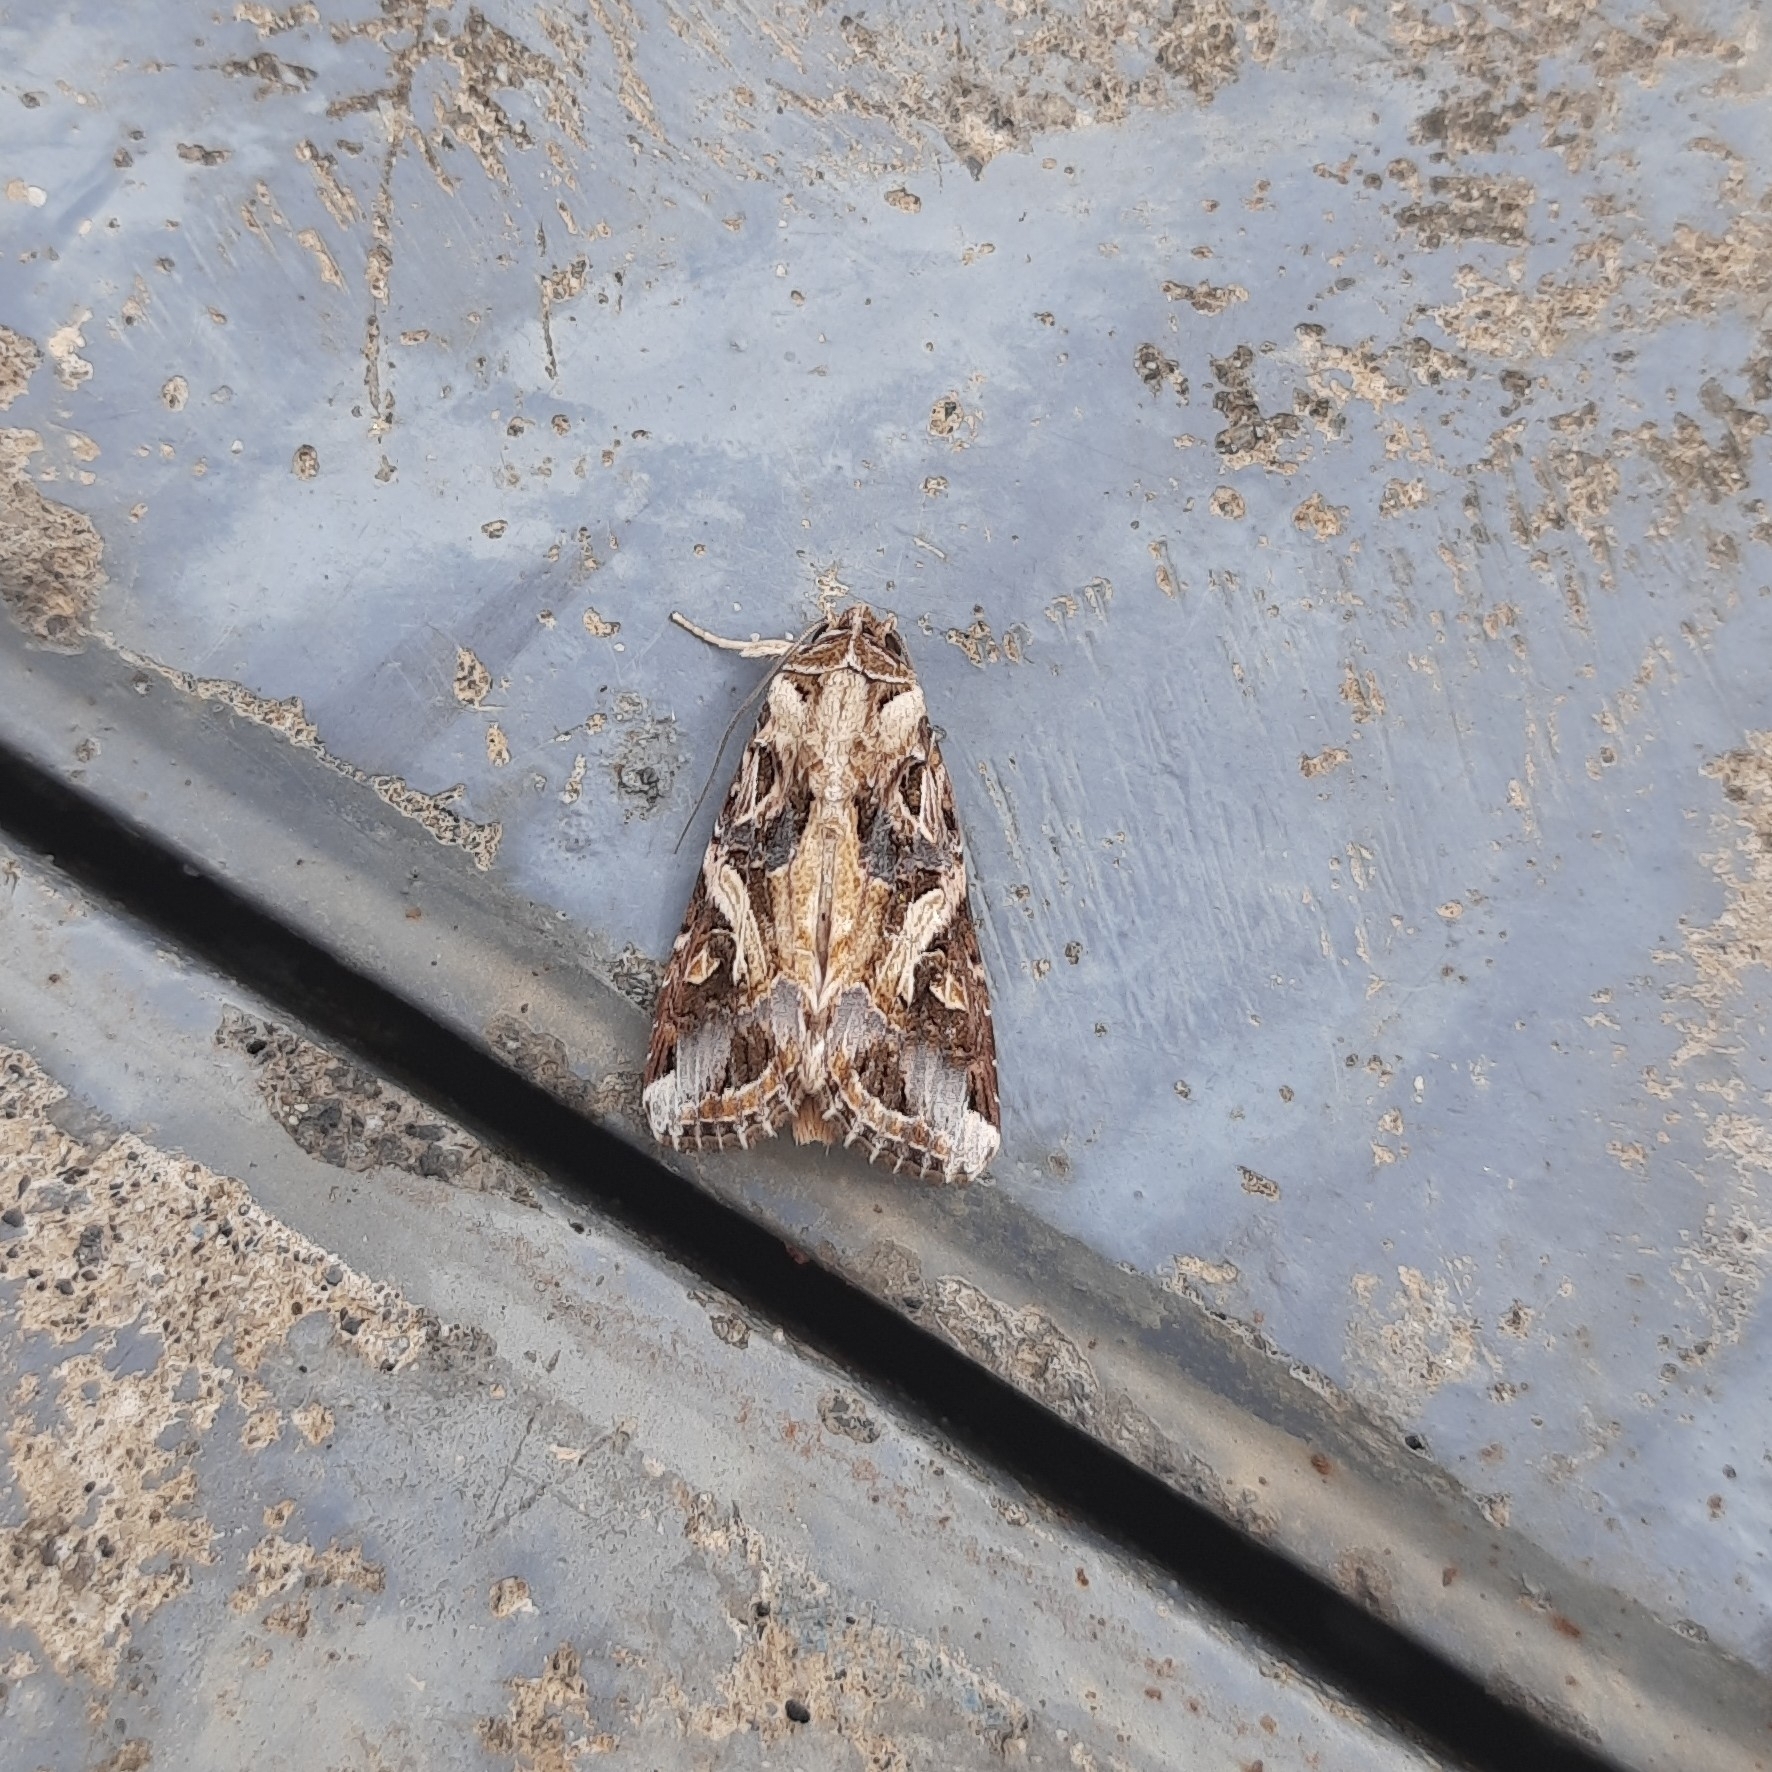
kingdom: Animalia
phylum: Arthropoda
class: Insecta
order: Lepidoptera
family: Noctuidae
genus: Spodoptera
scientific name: Spodoptera litura
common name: Asian cotton leafworm
